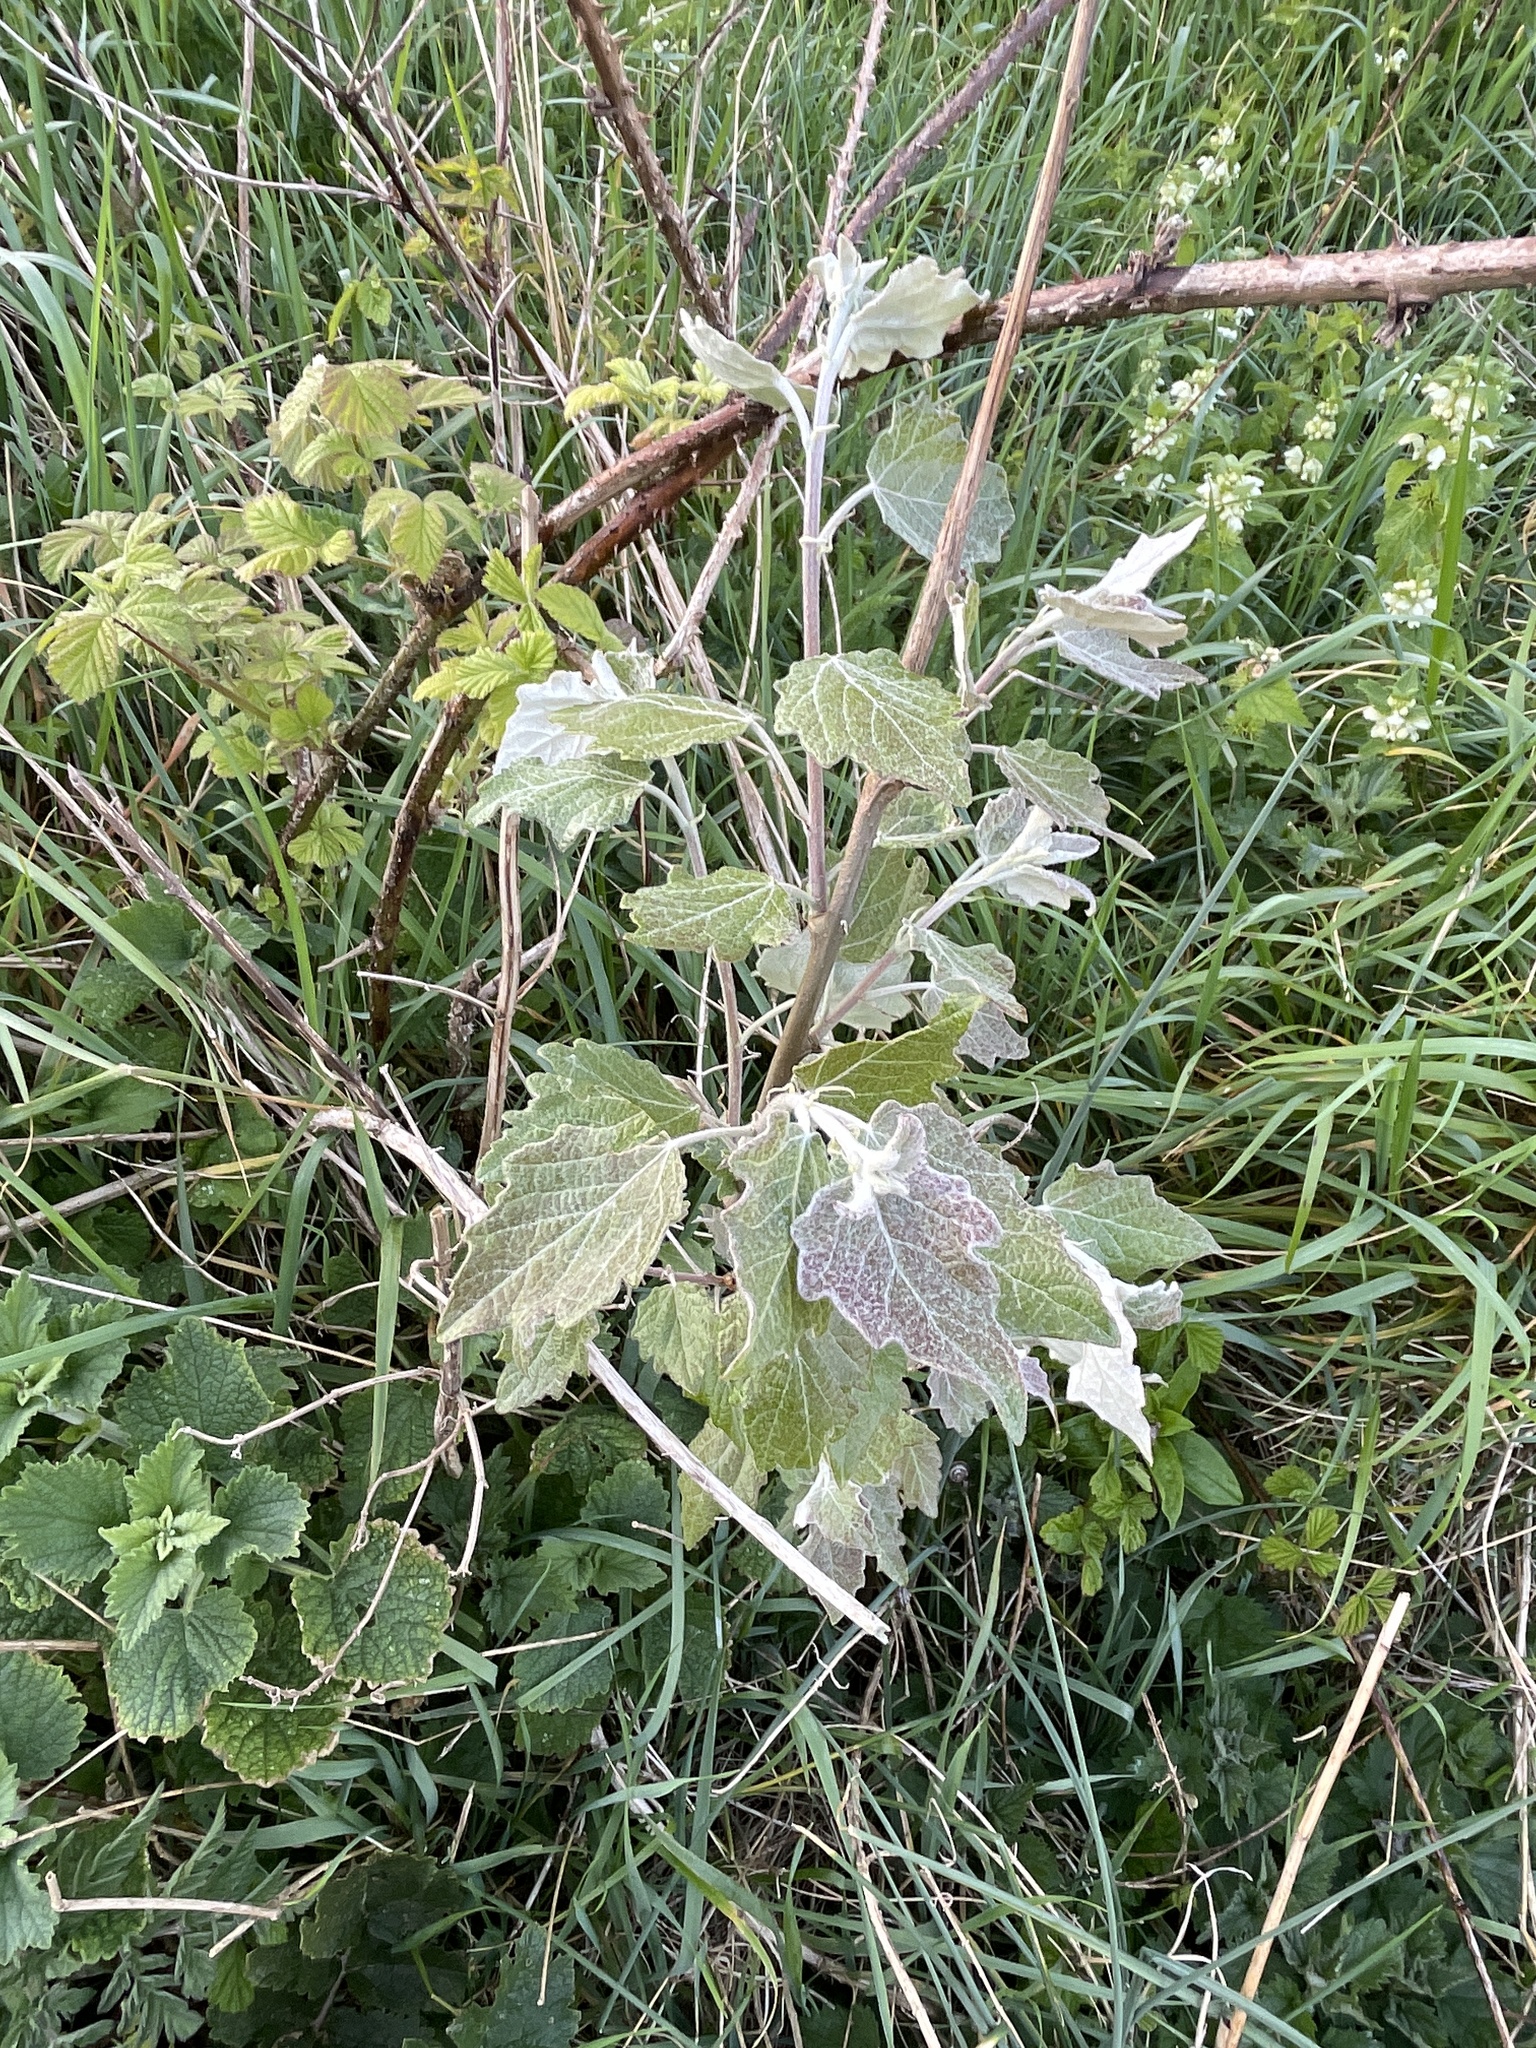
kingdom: Plantae
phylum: Tracheophyta
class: Magnoliopsida
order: Malpighiales
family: Salicaceae
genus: Populus
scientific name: Populus alba
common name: White poplar
